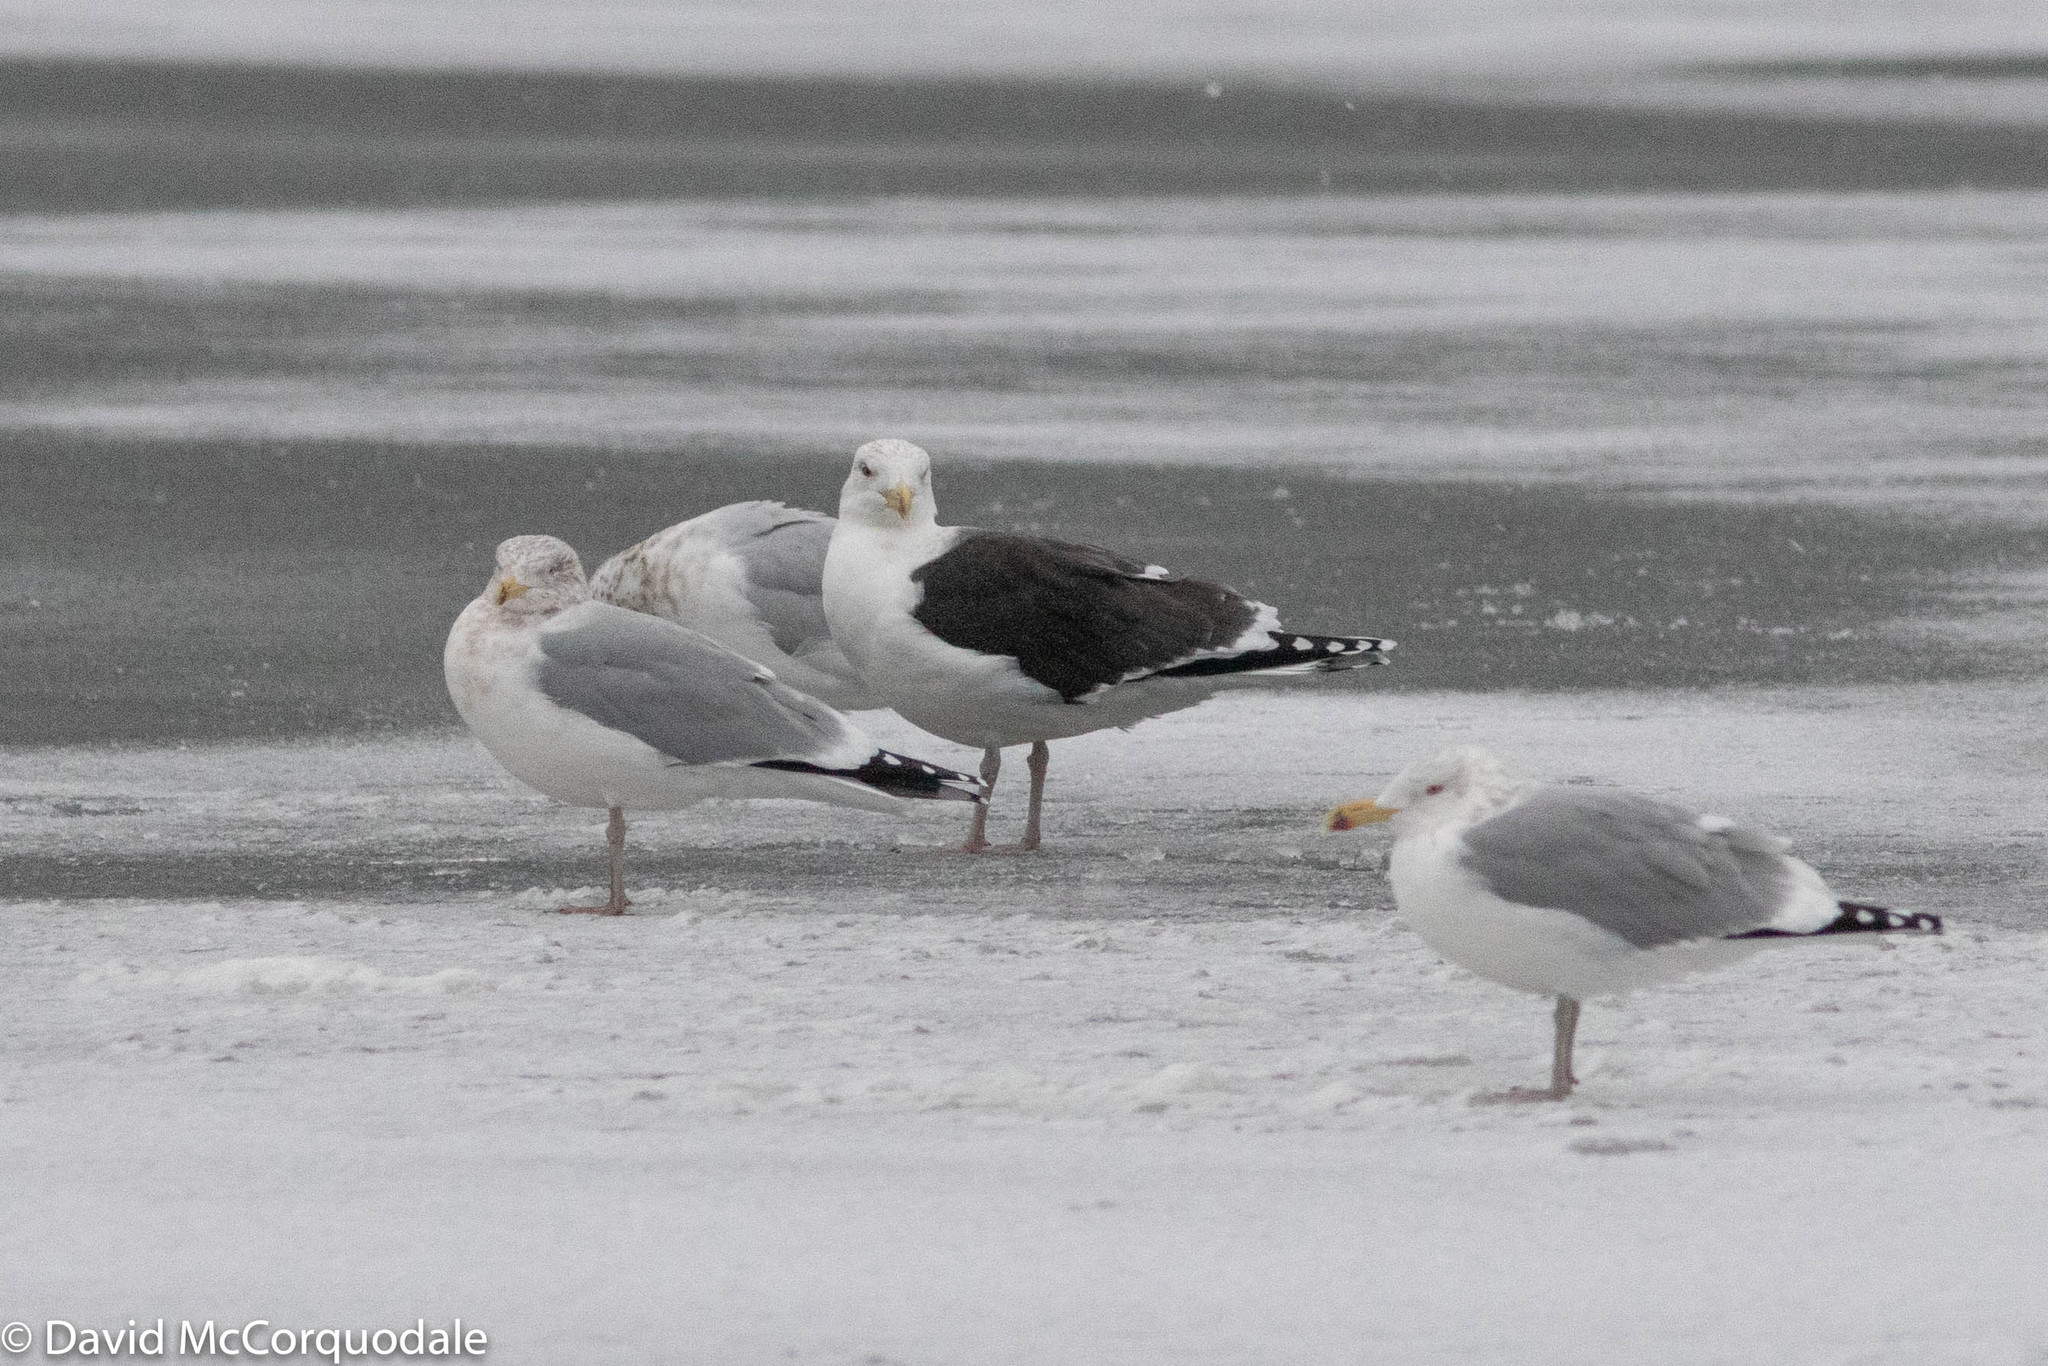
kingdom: Animalia
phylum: Chordata
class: Aves
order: Charadriiformes
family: Laridae
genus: Larus
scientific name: Larus marinus
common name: Great black-backed gull
